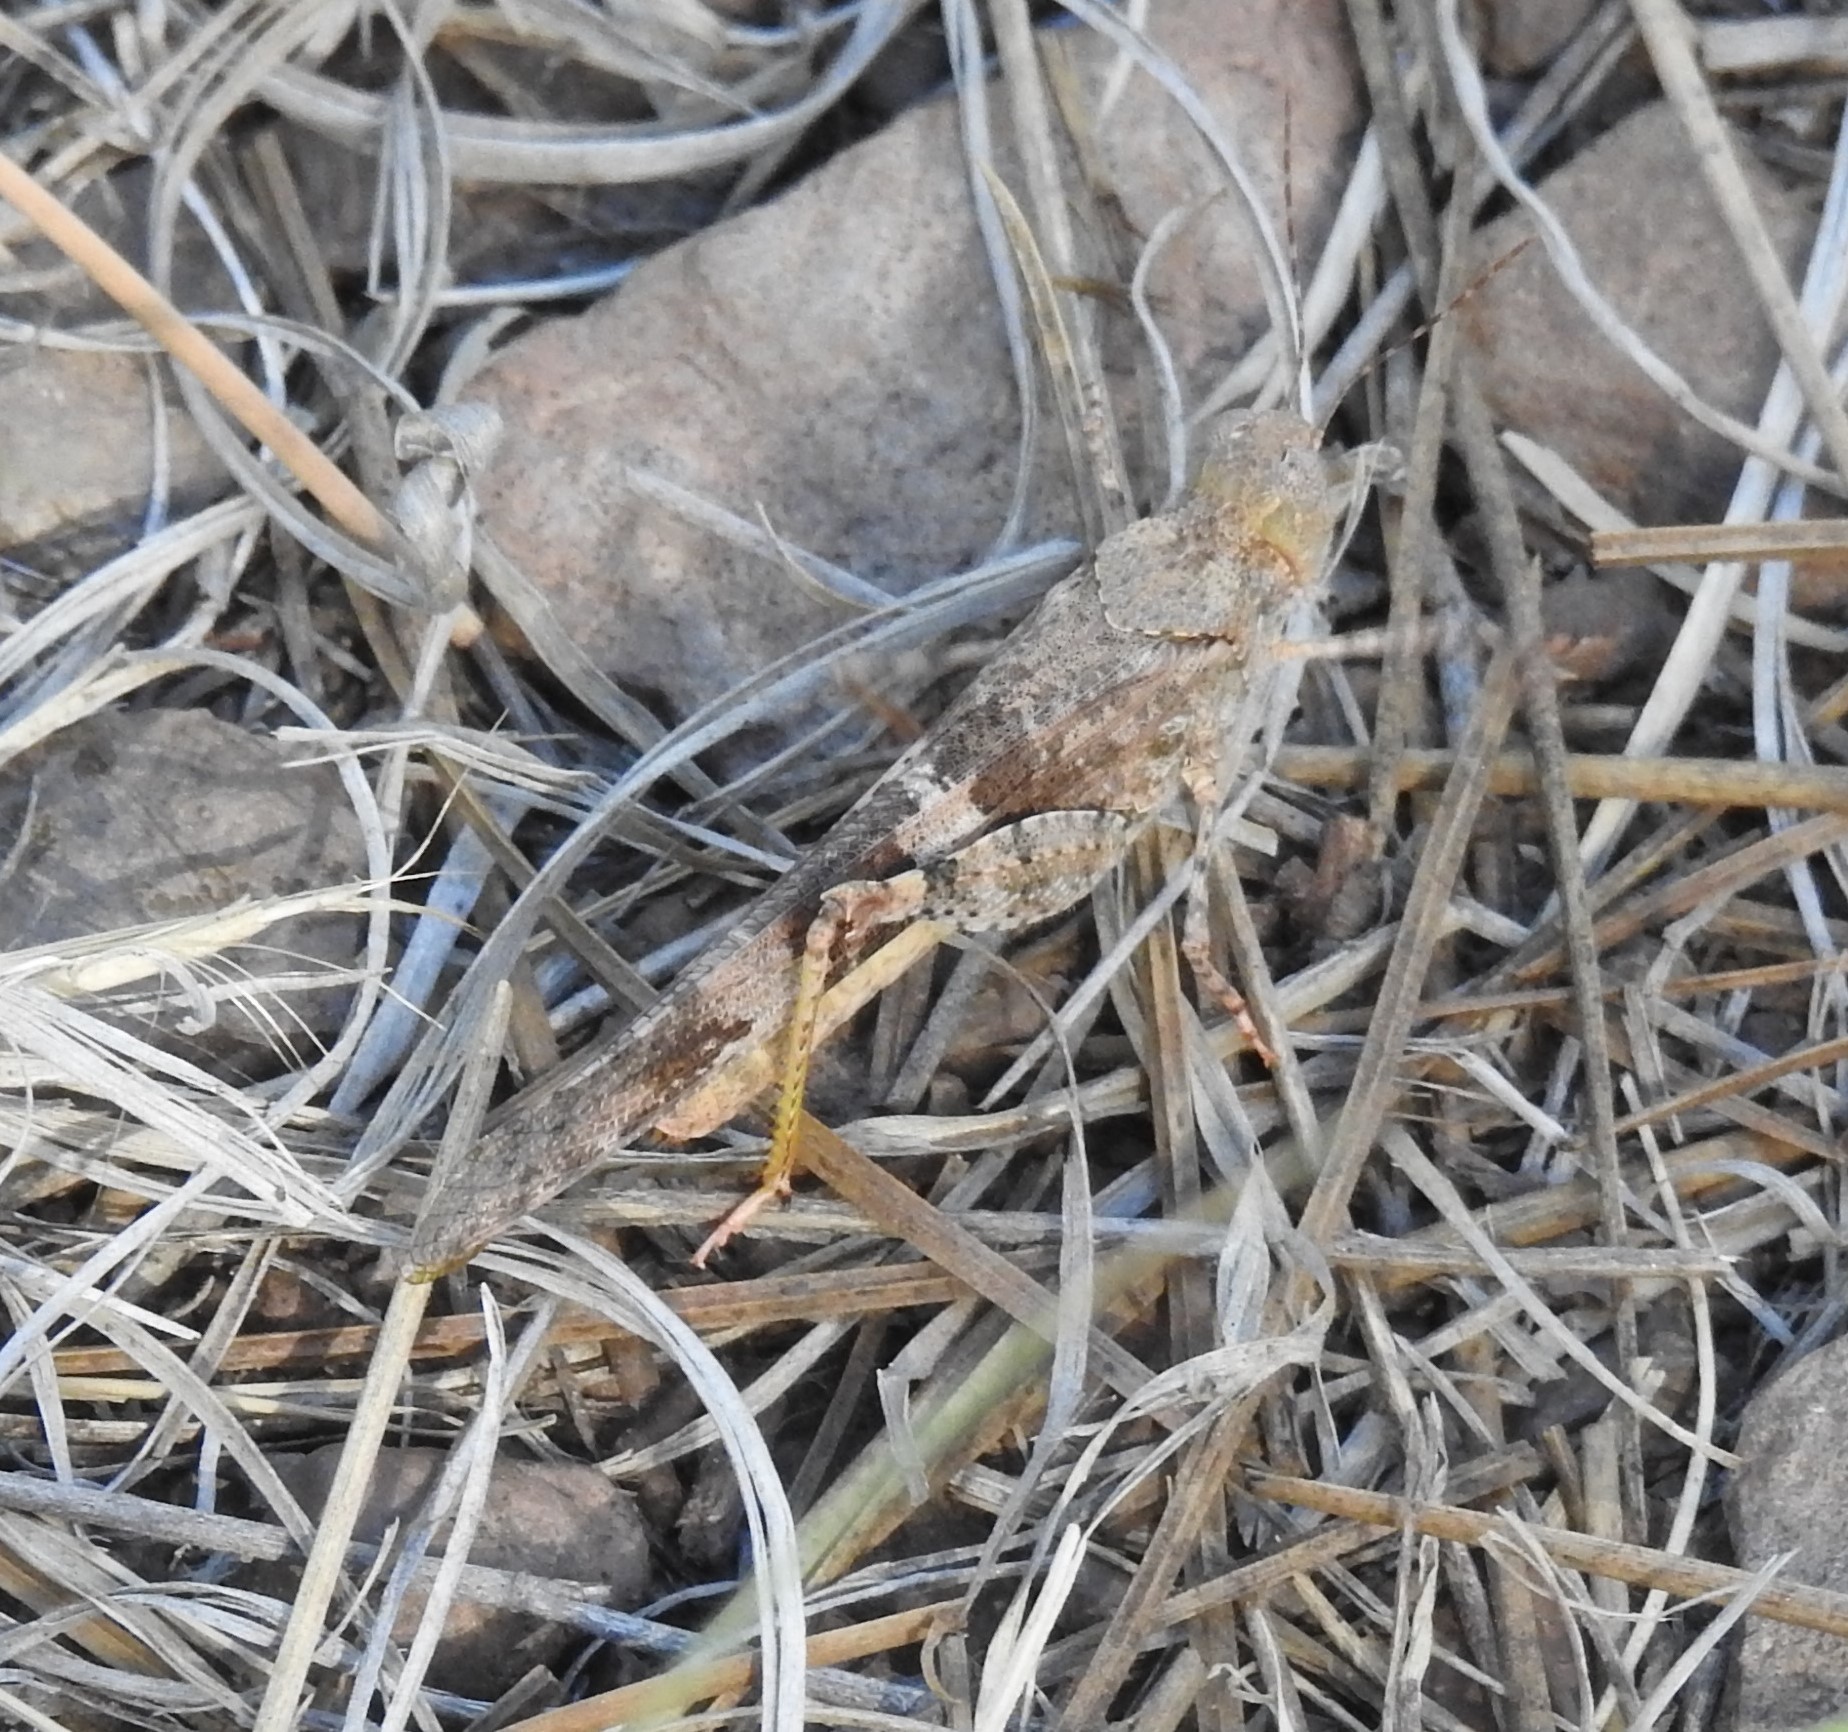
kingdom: Animalia
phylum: Arthropoda
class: Insecta
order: Orthoptera
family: Acrididae
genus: Trimerotropis
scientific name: Trimerotropis pallidipennis
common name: Pallid-winged grasshopper
